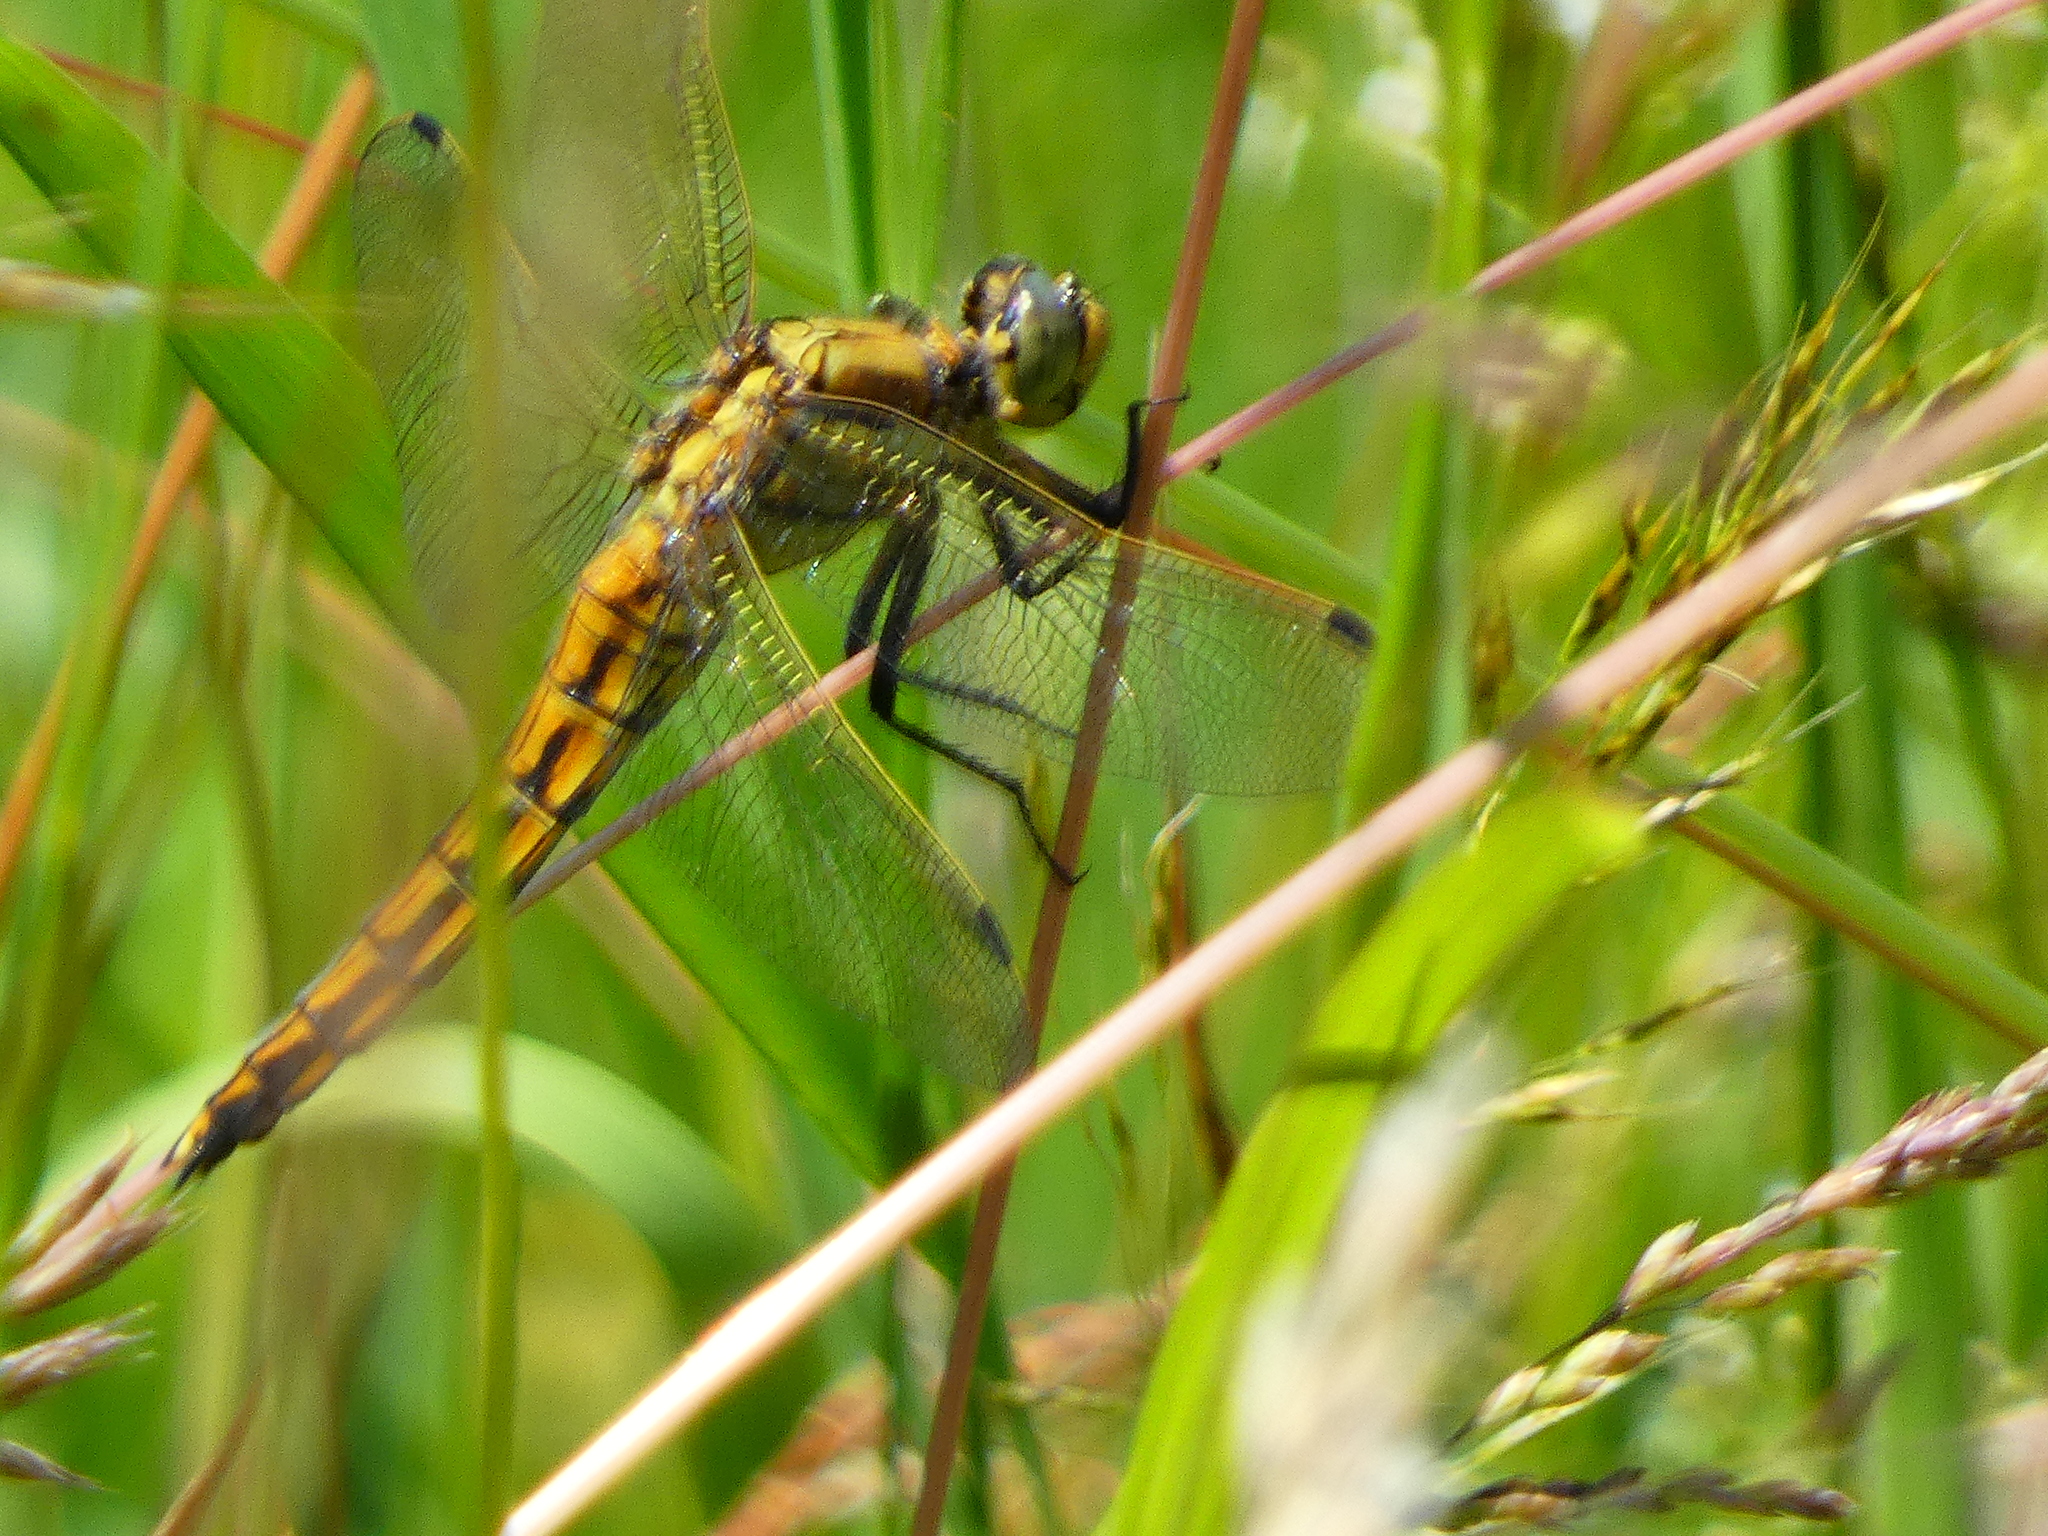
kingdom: Animalia
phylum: Arthropoda
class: Insecta
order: Odonata
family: Libellulidae
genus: Orthetrum
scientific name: Orthetrum cancellatum
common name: Black-tailed skimmer
